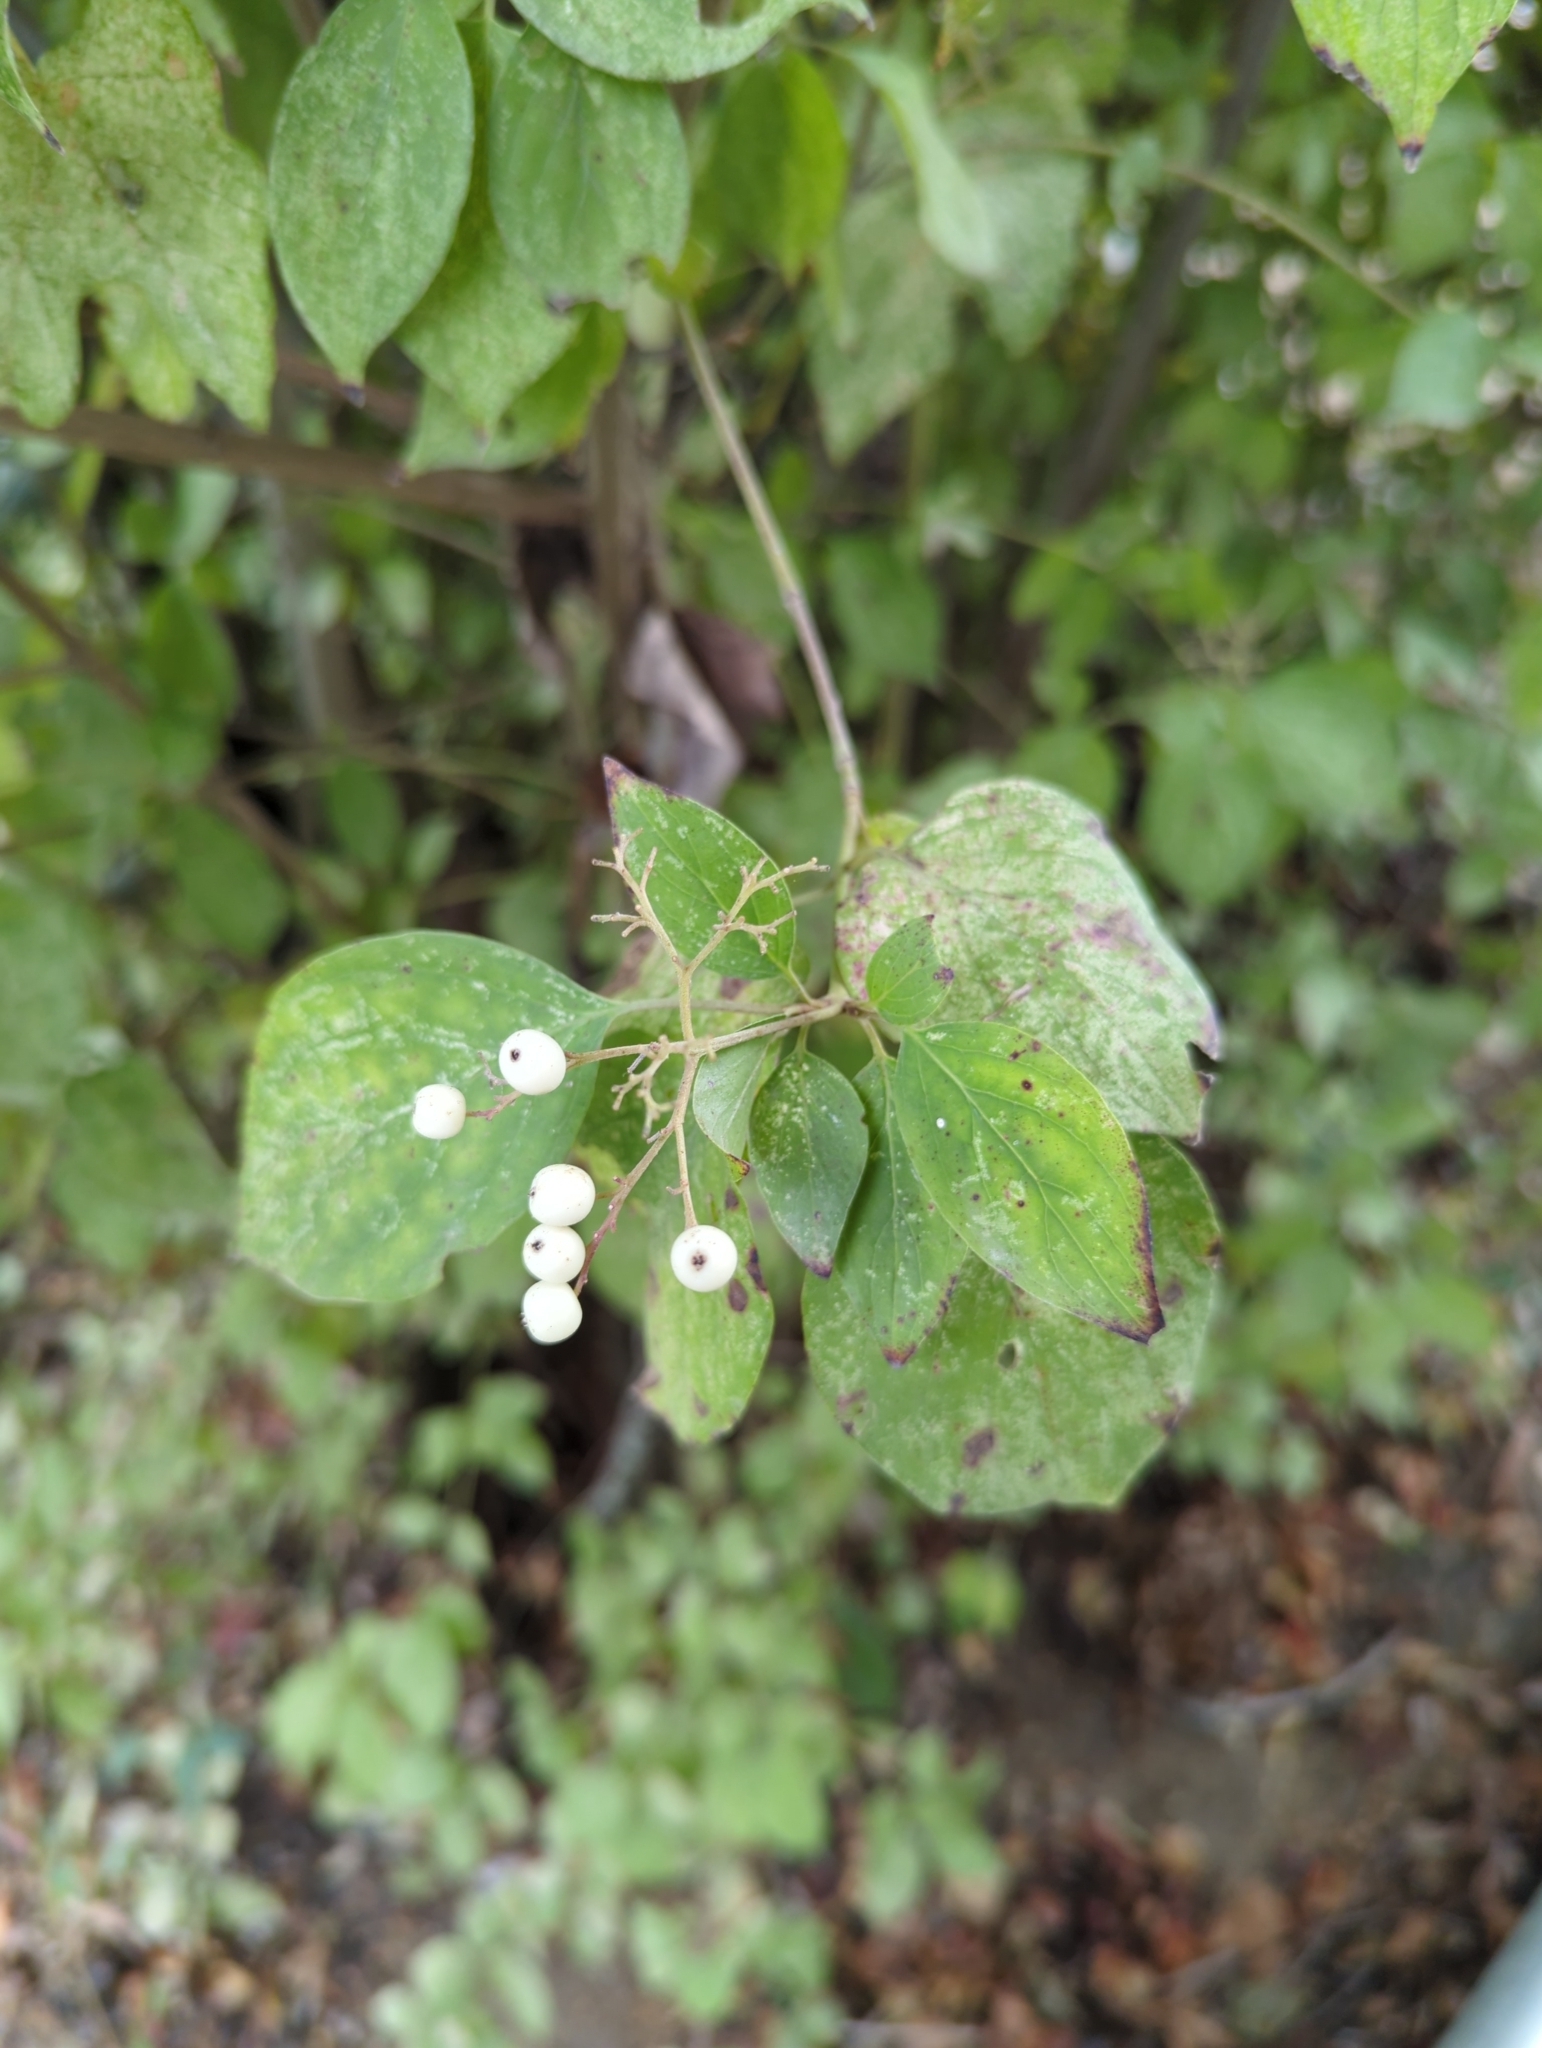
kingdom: Plantae
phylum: Tracheophyta
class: Magnoliopsida
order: Cornales
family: Cornaceae
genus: Cornus
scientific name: Cornus drummondii
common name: Rough-leaf dogwood
